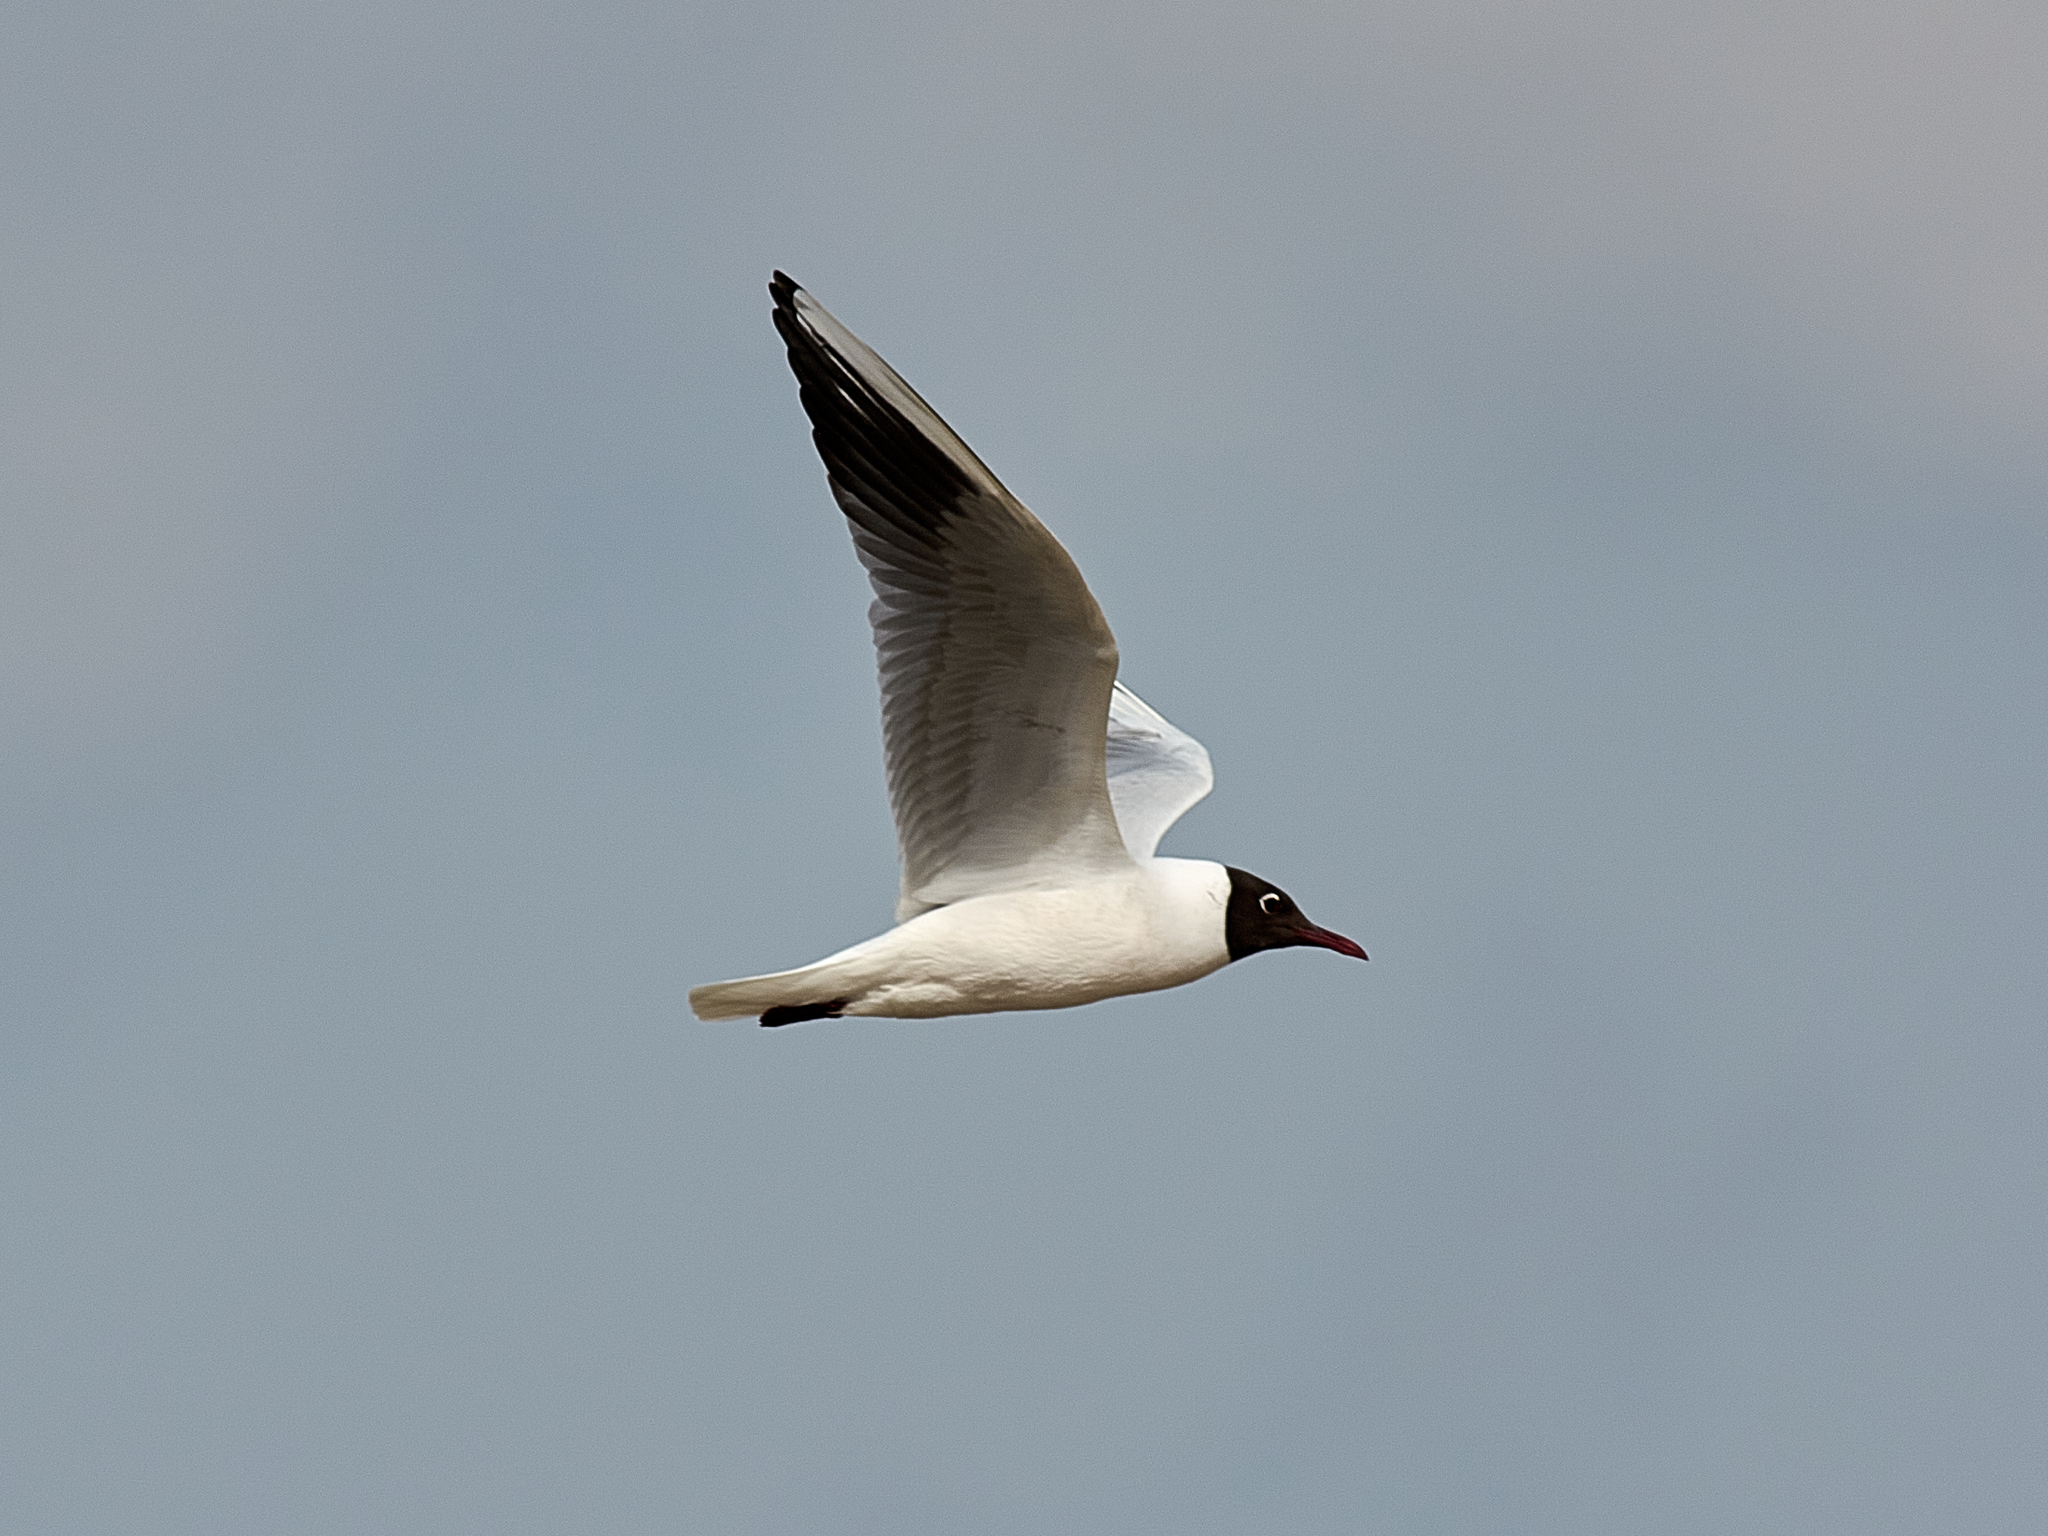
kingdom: Animalia
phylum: Chordata
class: Aves
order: Charadriiformes
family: Laridae
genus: Chroicocephalus
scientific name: Chroicocephalus ridibundus
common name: Black-headed gull
